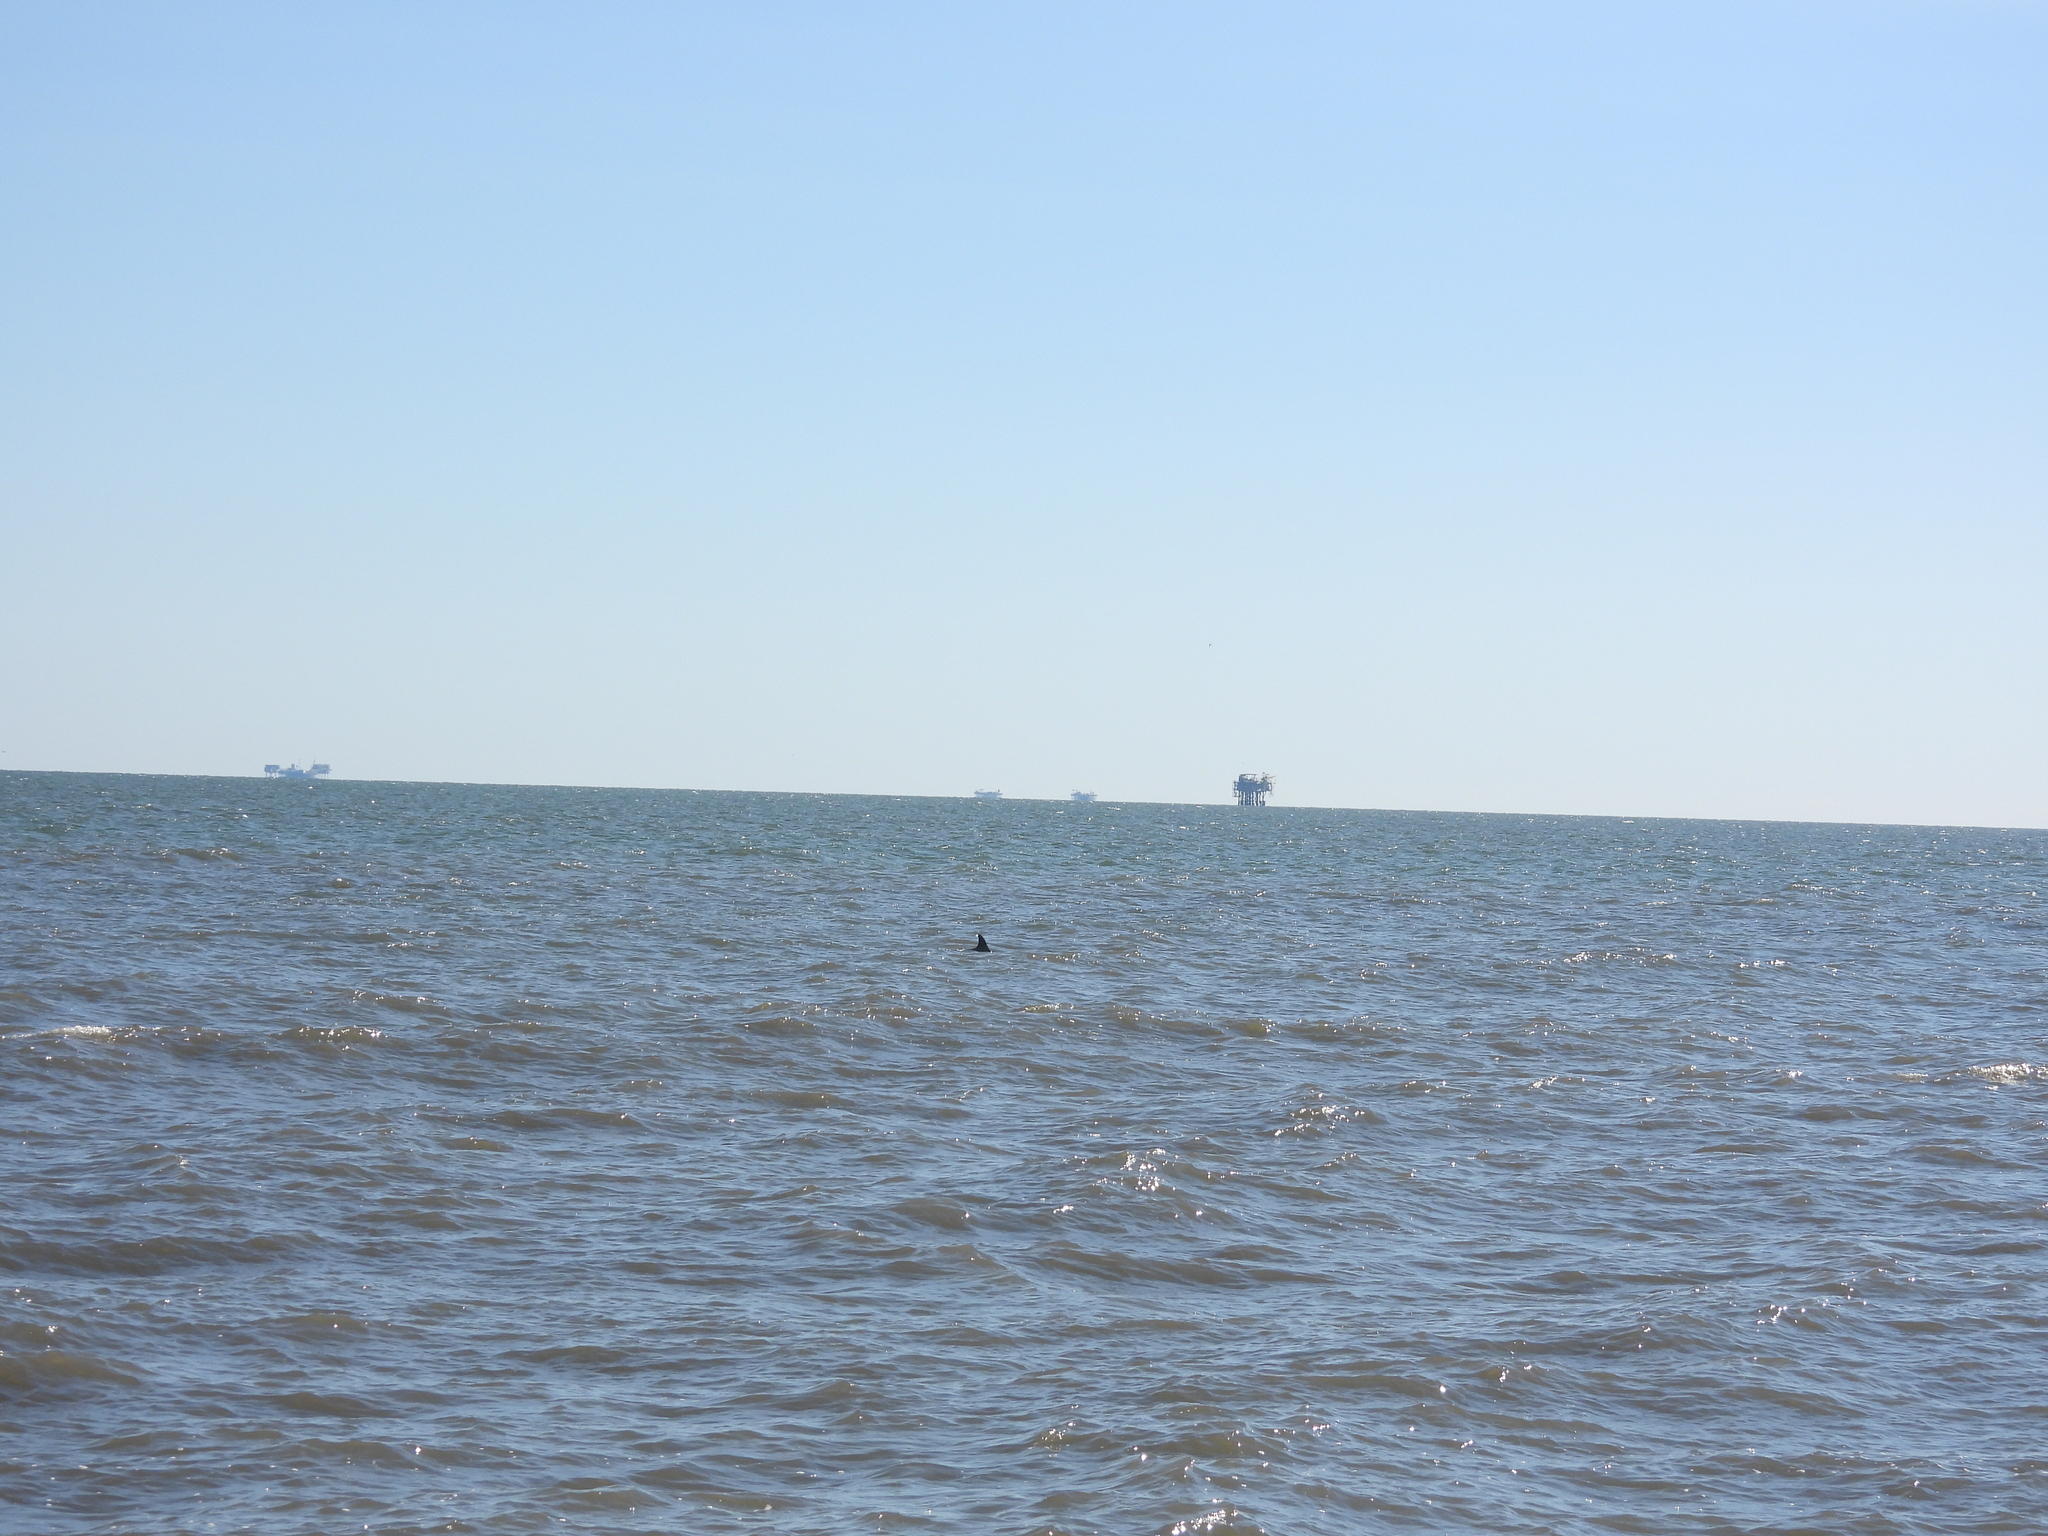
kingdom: Animalia
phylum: Chordata
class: Mammalia
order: Cetacea
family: Delphinidae
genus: Tursiops
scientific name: Tursiops truncatus
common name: Bottlenose dolphin
